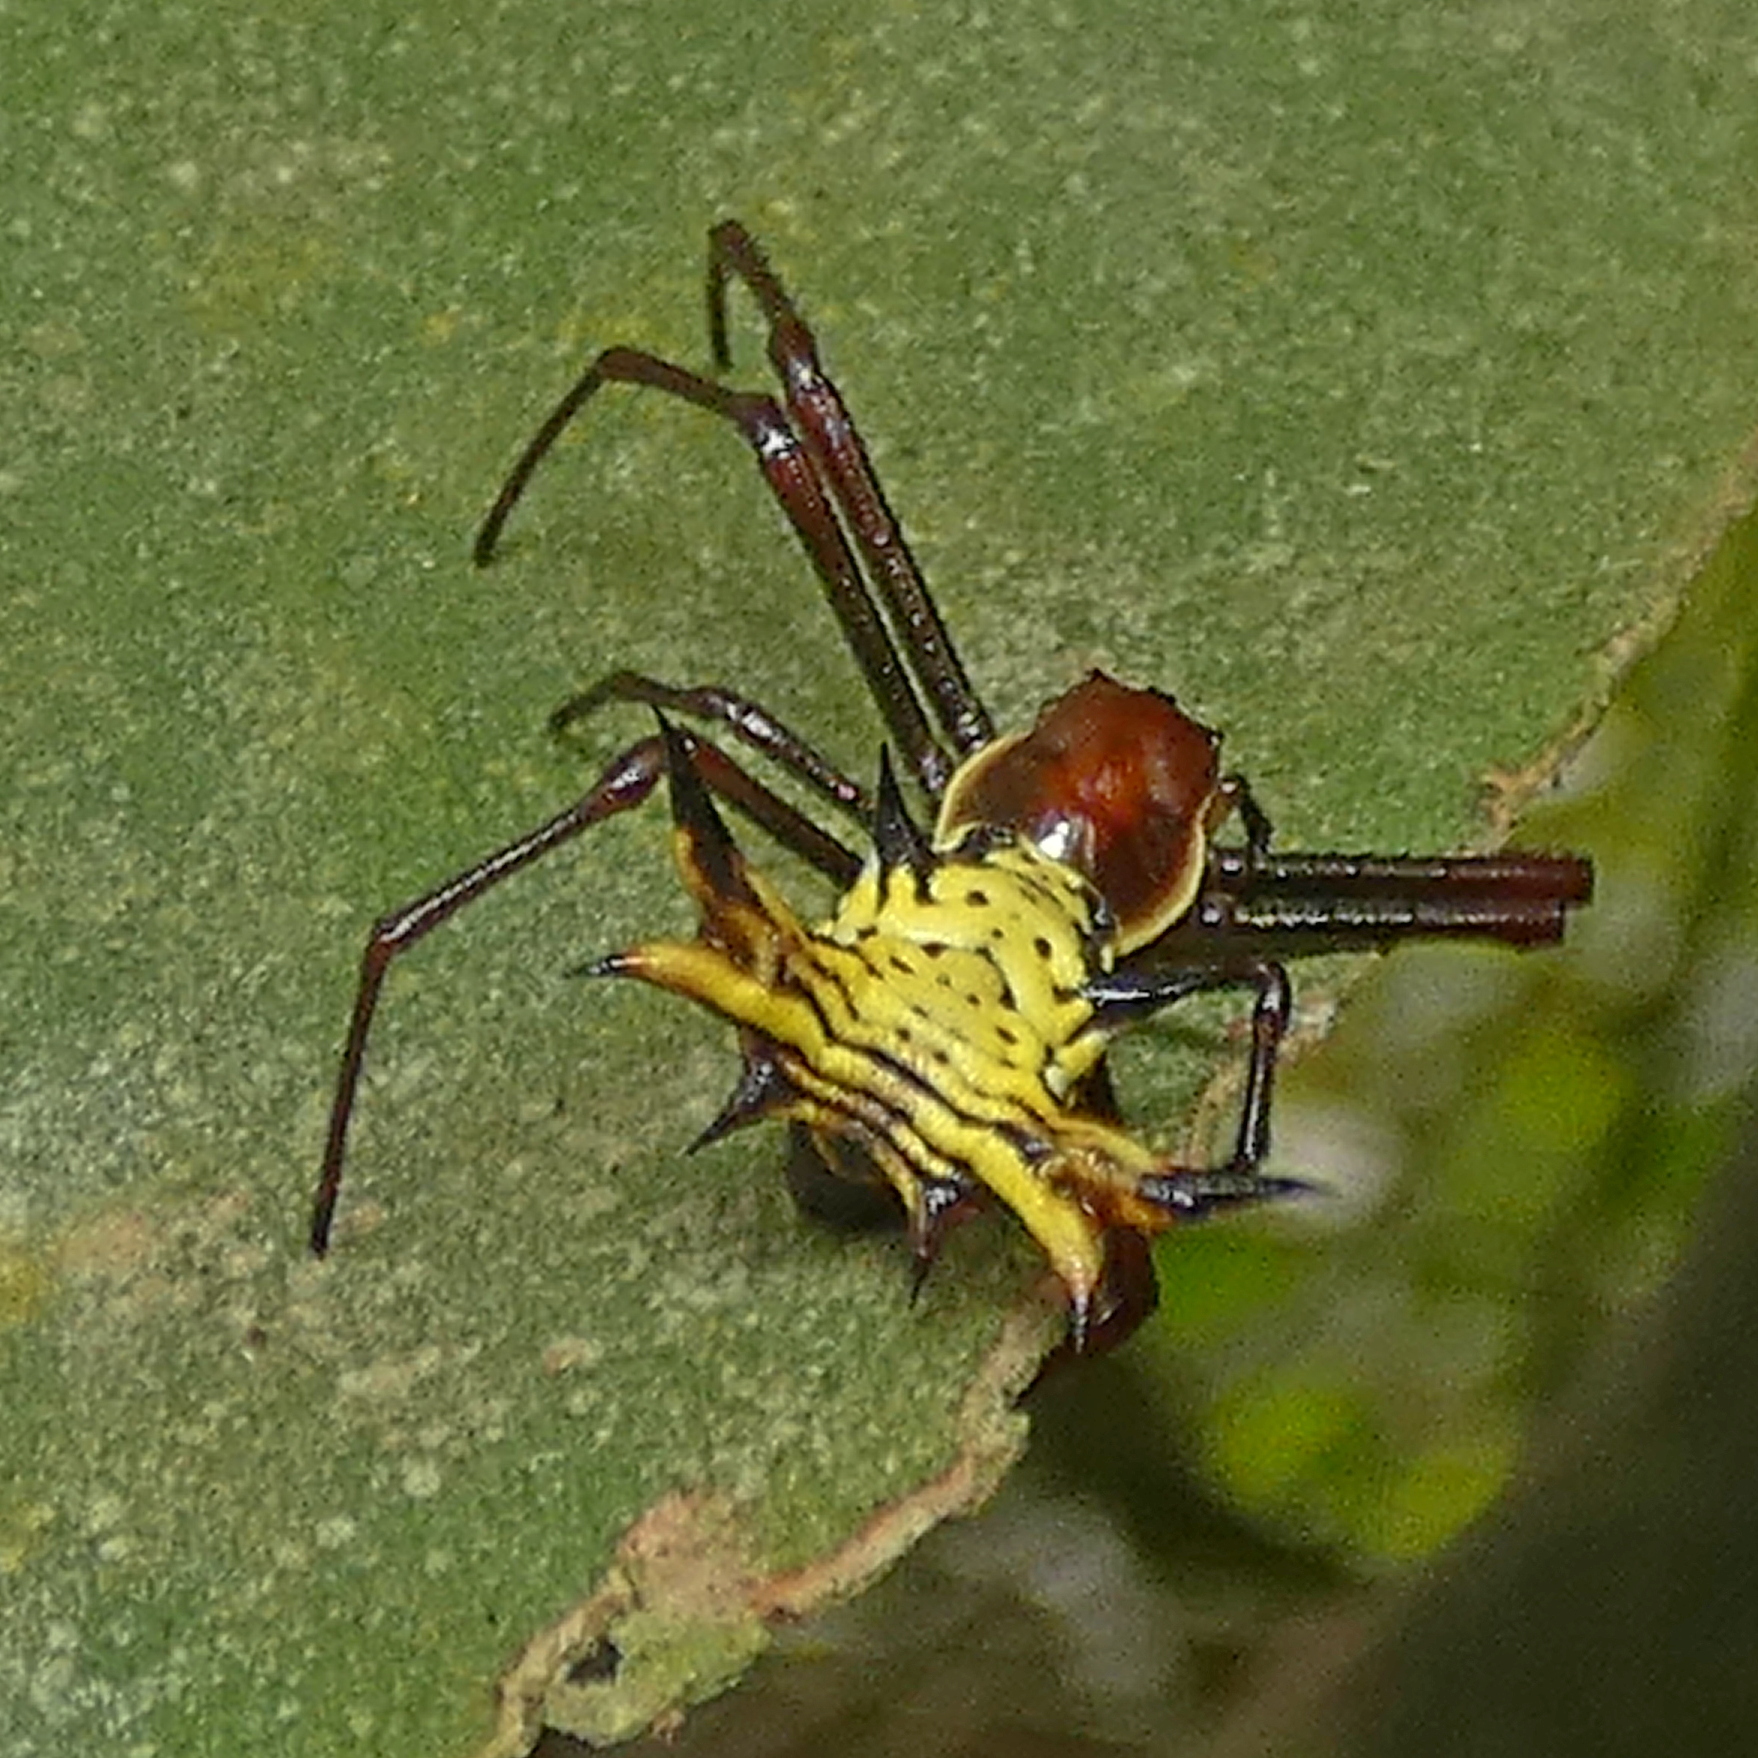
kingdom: Animalia
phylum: Arthropoda
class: Arachnida
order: Araneae
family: Araneidae
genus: Micrathena
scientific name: Micrathena fissispina
